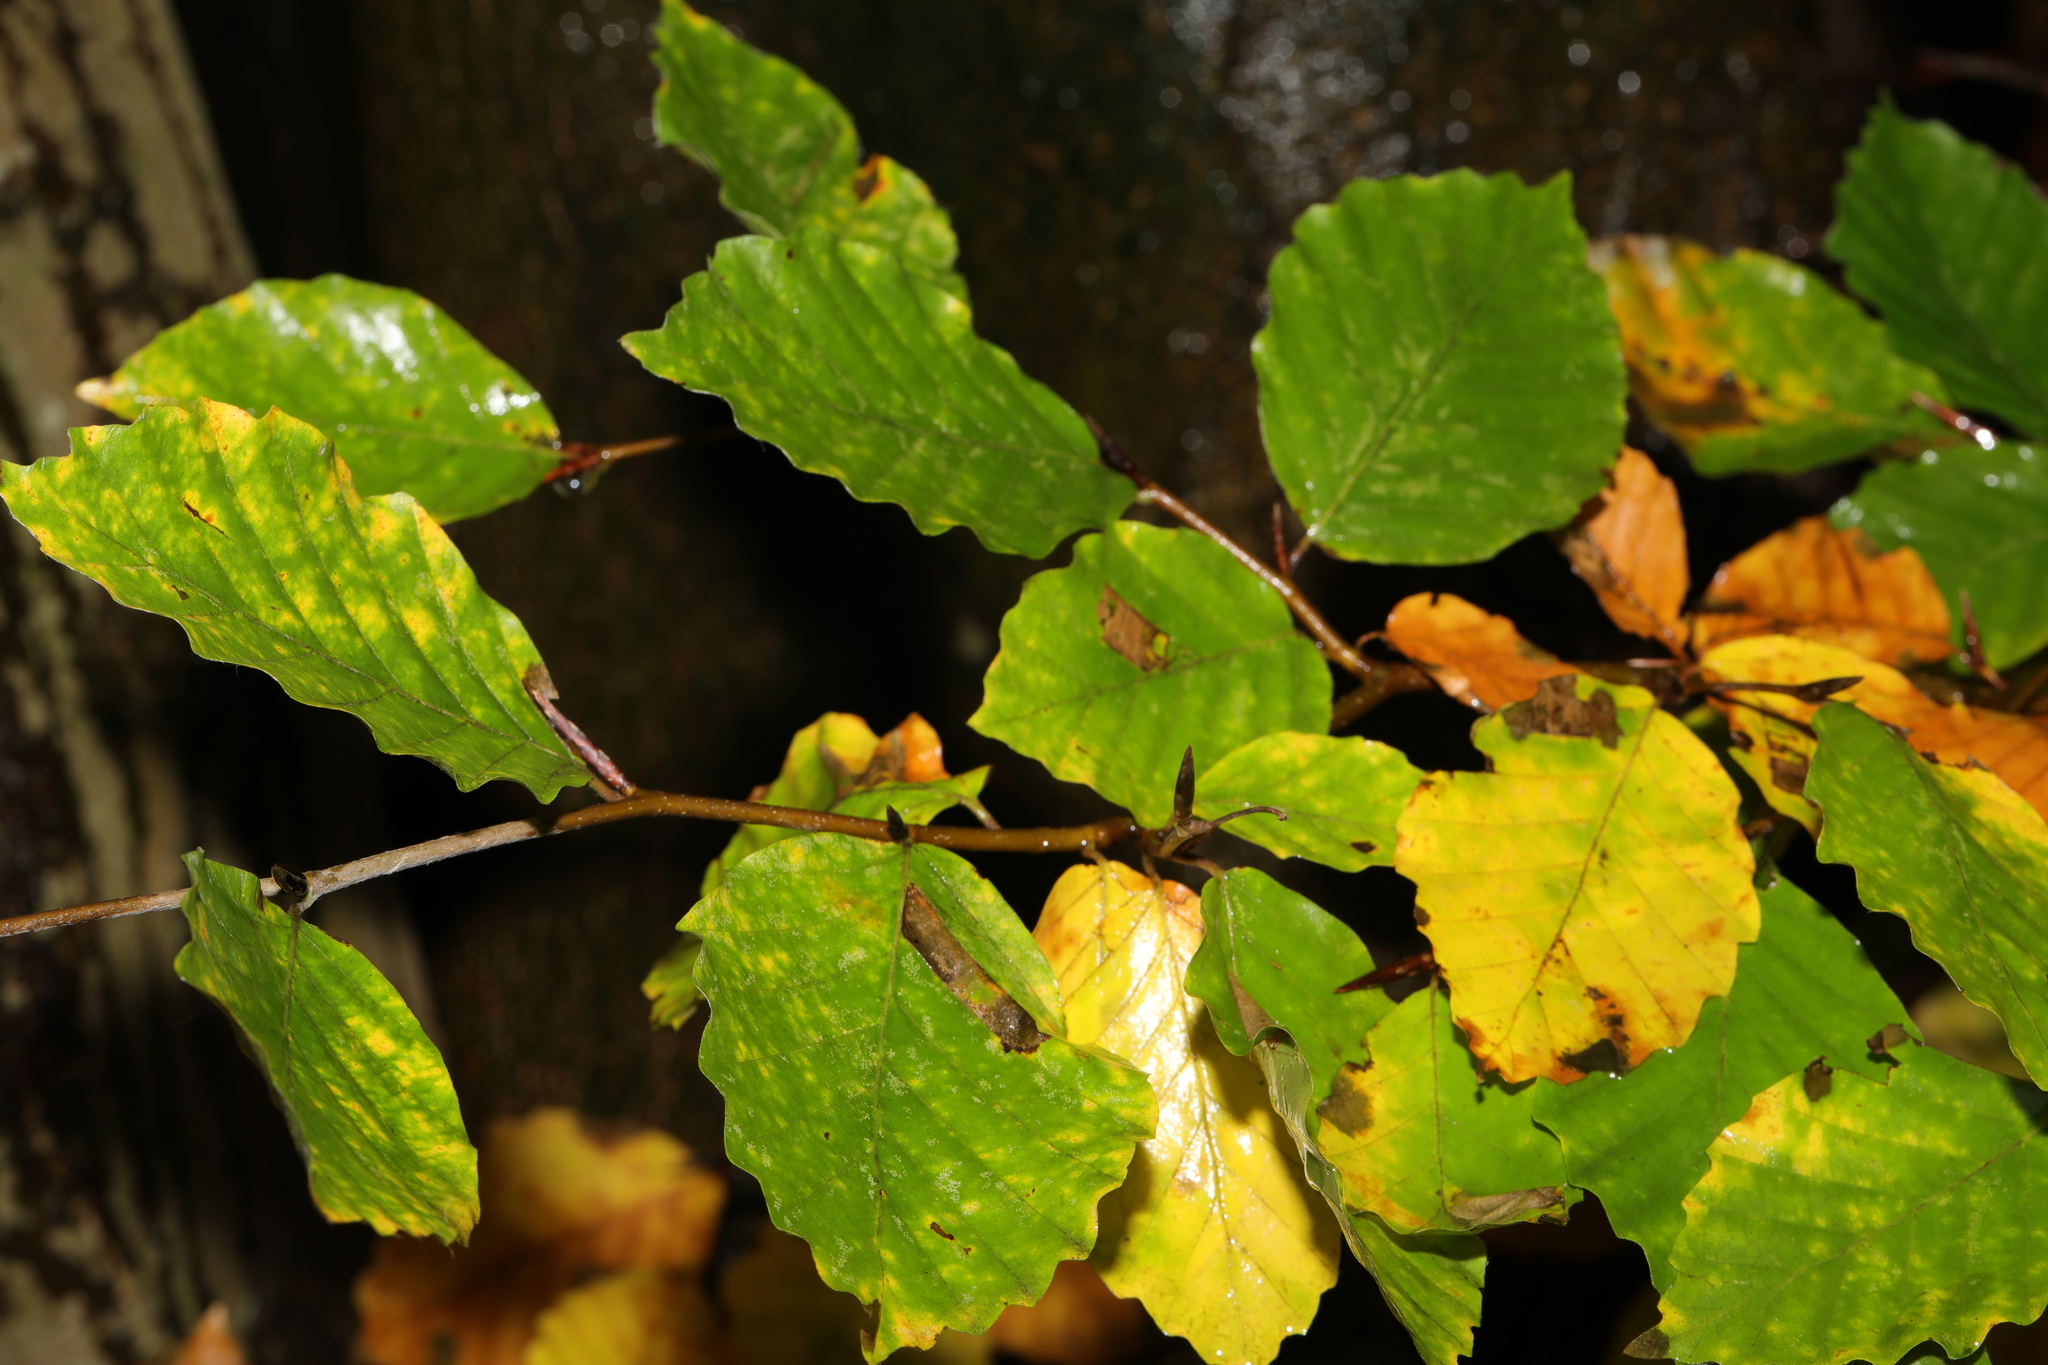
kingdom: Plantae
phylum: Tracheophyta
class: Magnoliopsida
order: Fagales
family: Fagaceae
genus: Fagus
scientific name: Fagus sylvatica
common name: Beech
